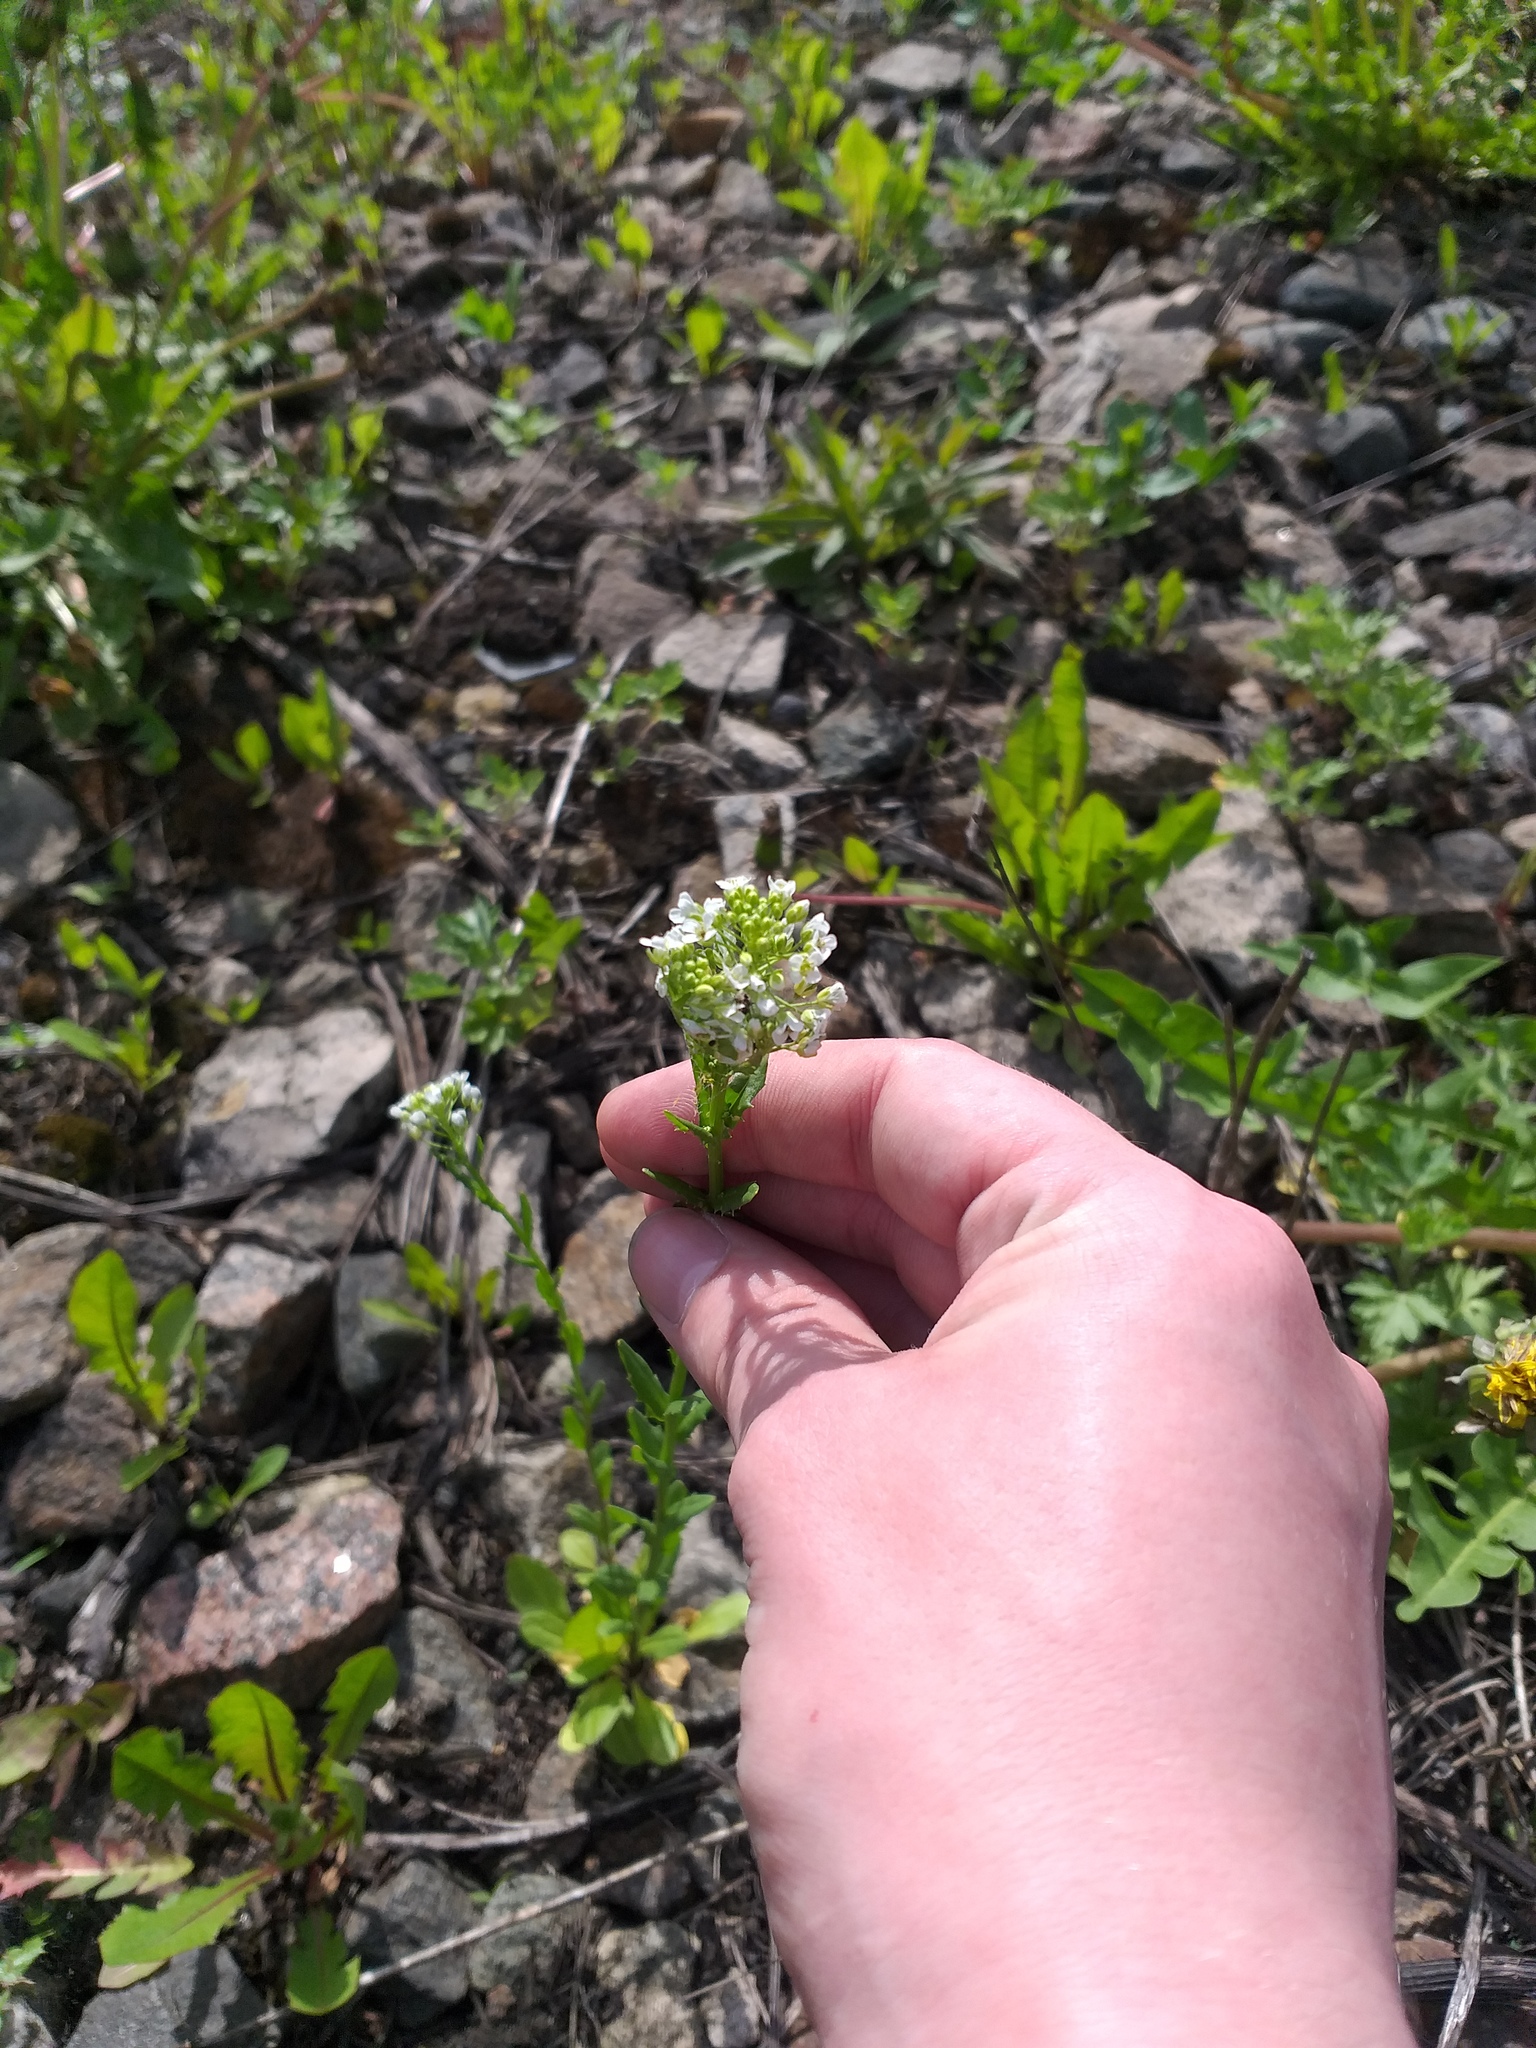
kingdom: Plantae
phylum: Tracheophyta
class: Magnoliopsida
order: Brassicales
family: Brassicaceae
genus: Thlaspi
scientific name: Thlaspi arvense
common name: Field pennycress
